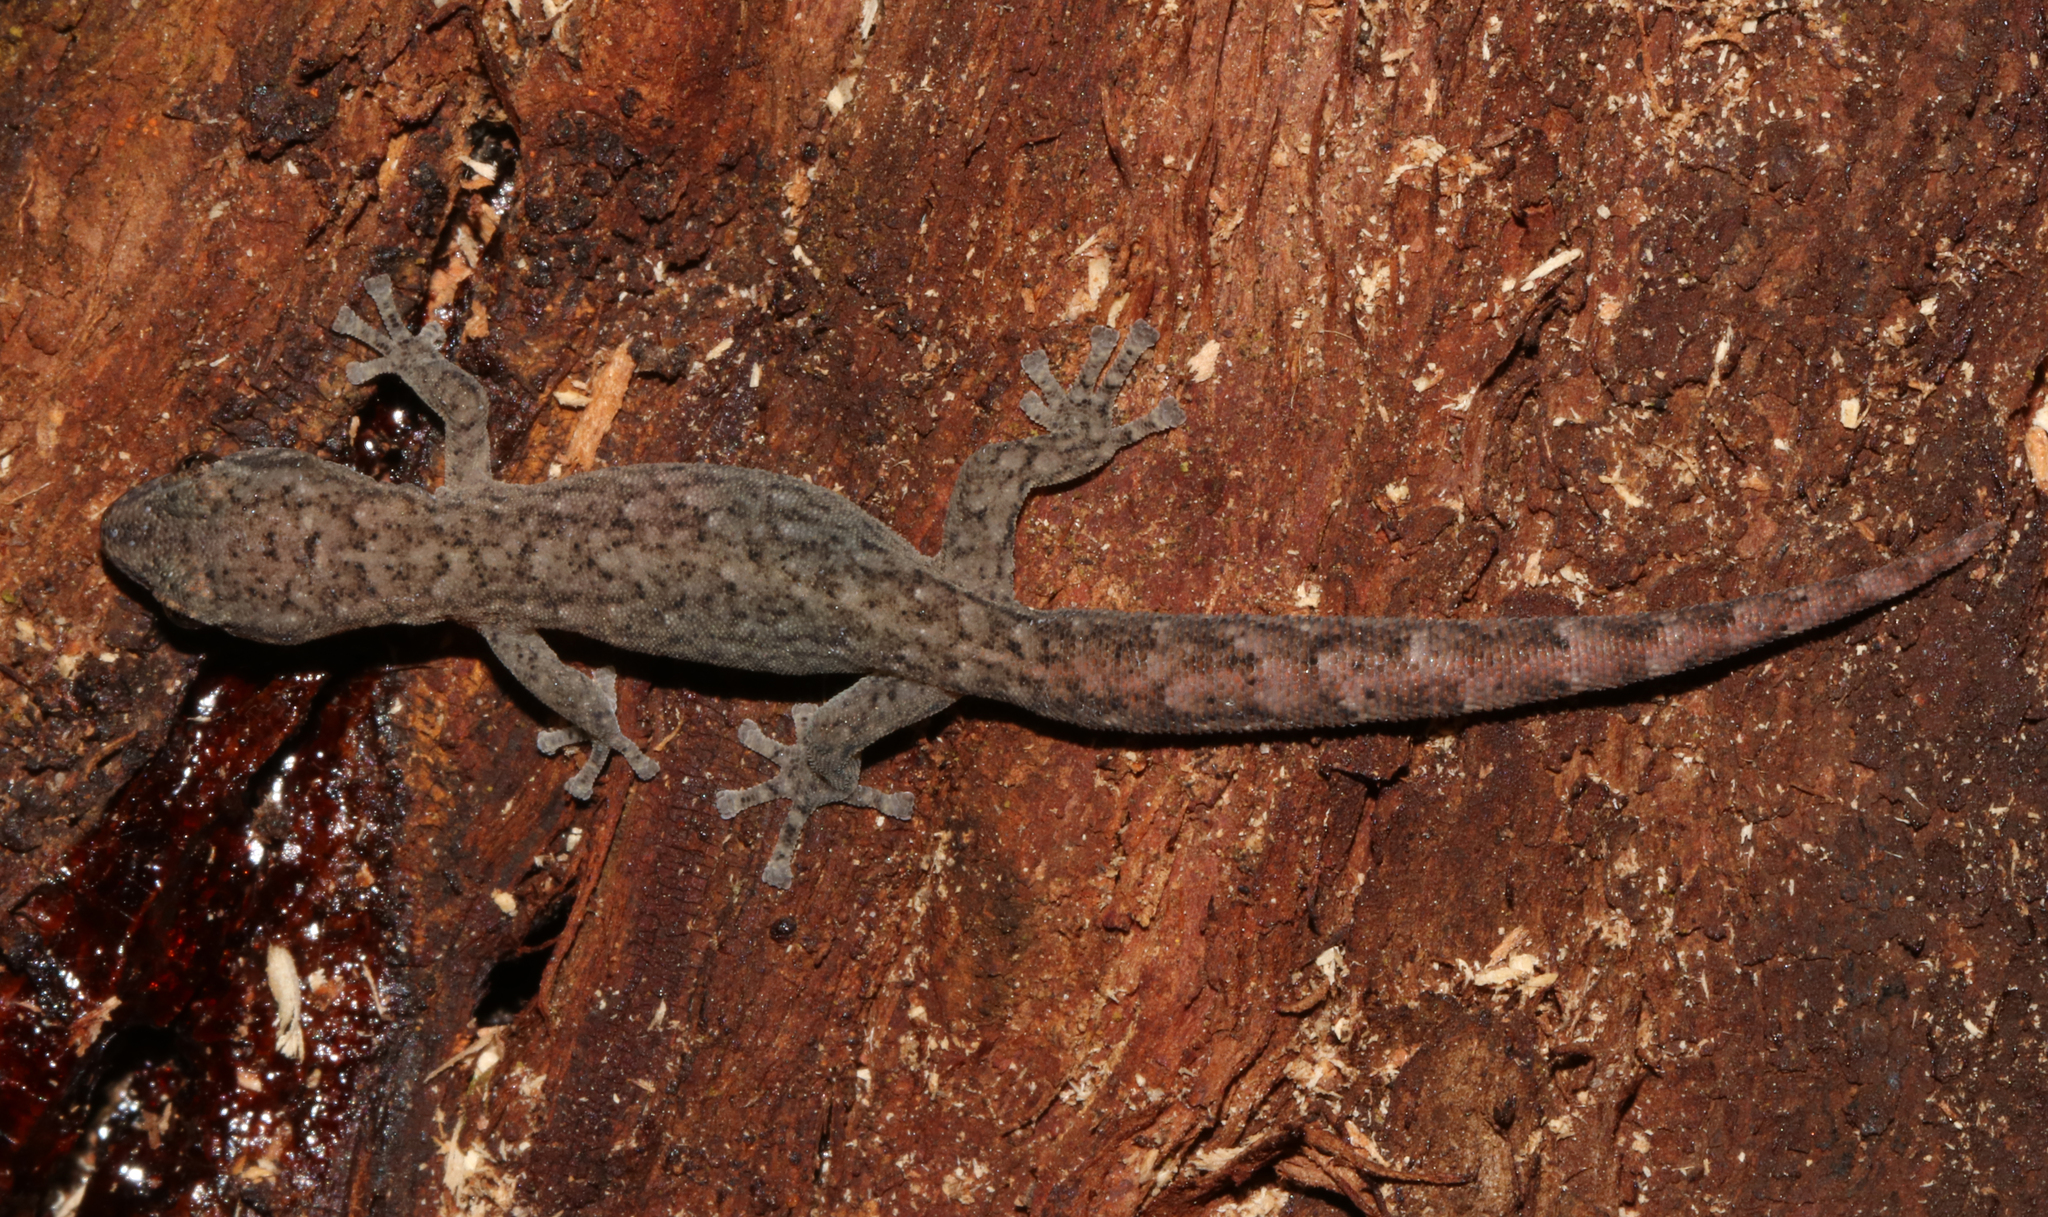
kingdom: Animalia
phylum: Chordata
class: Squamata
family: Gekkonidae
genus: Afrogecko
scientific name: Afrogecko porphyreus
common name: Marbled leaf-toed gecko
